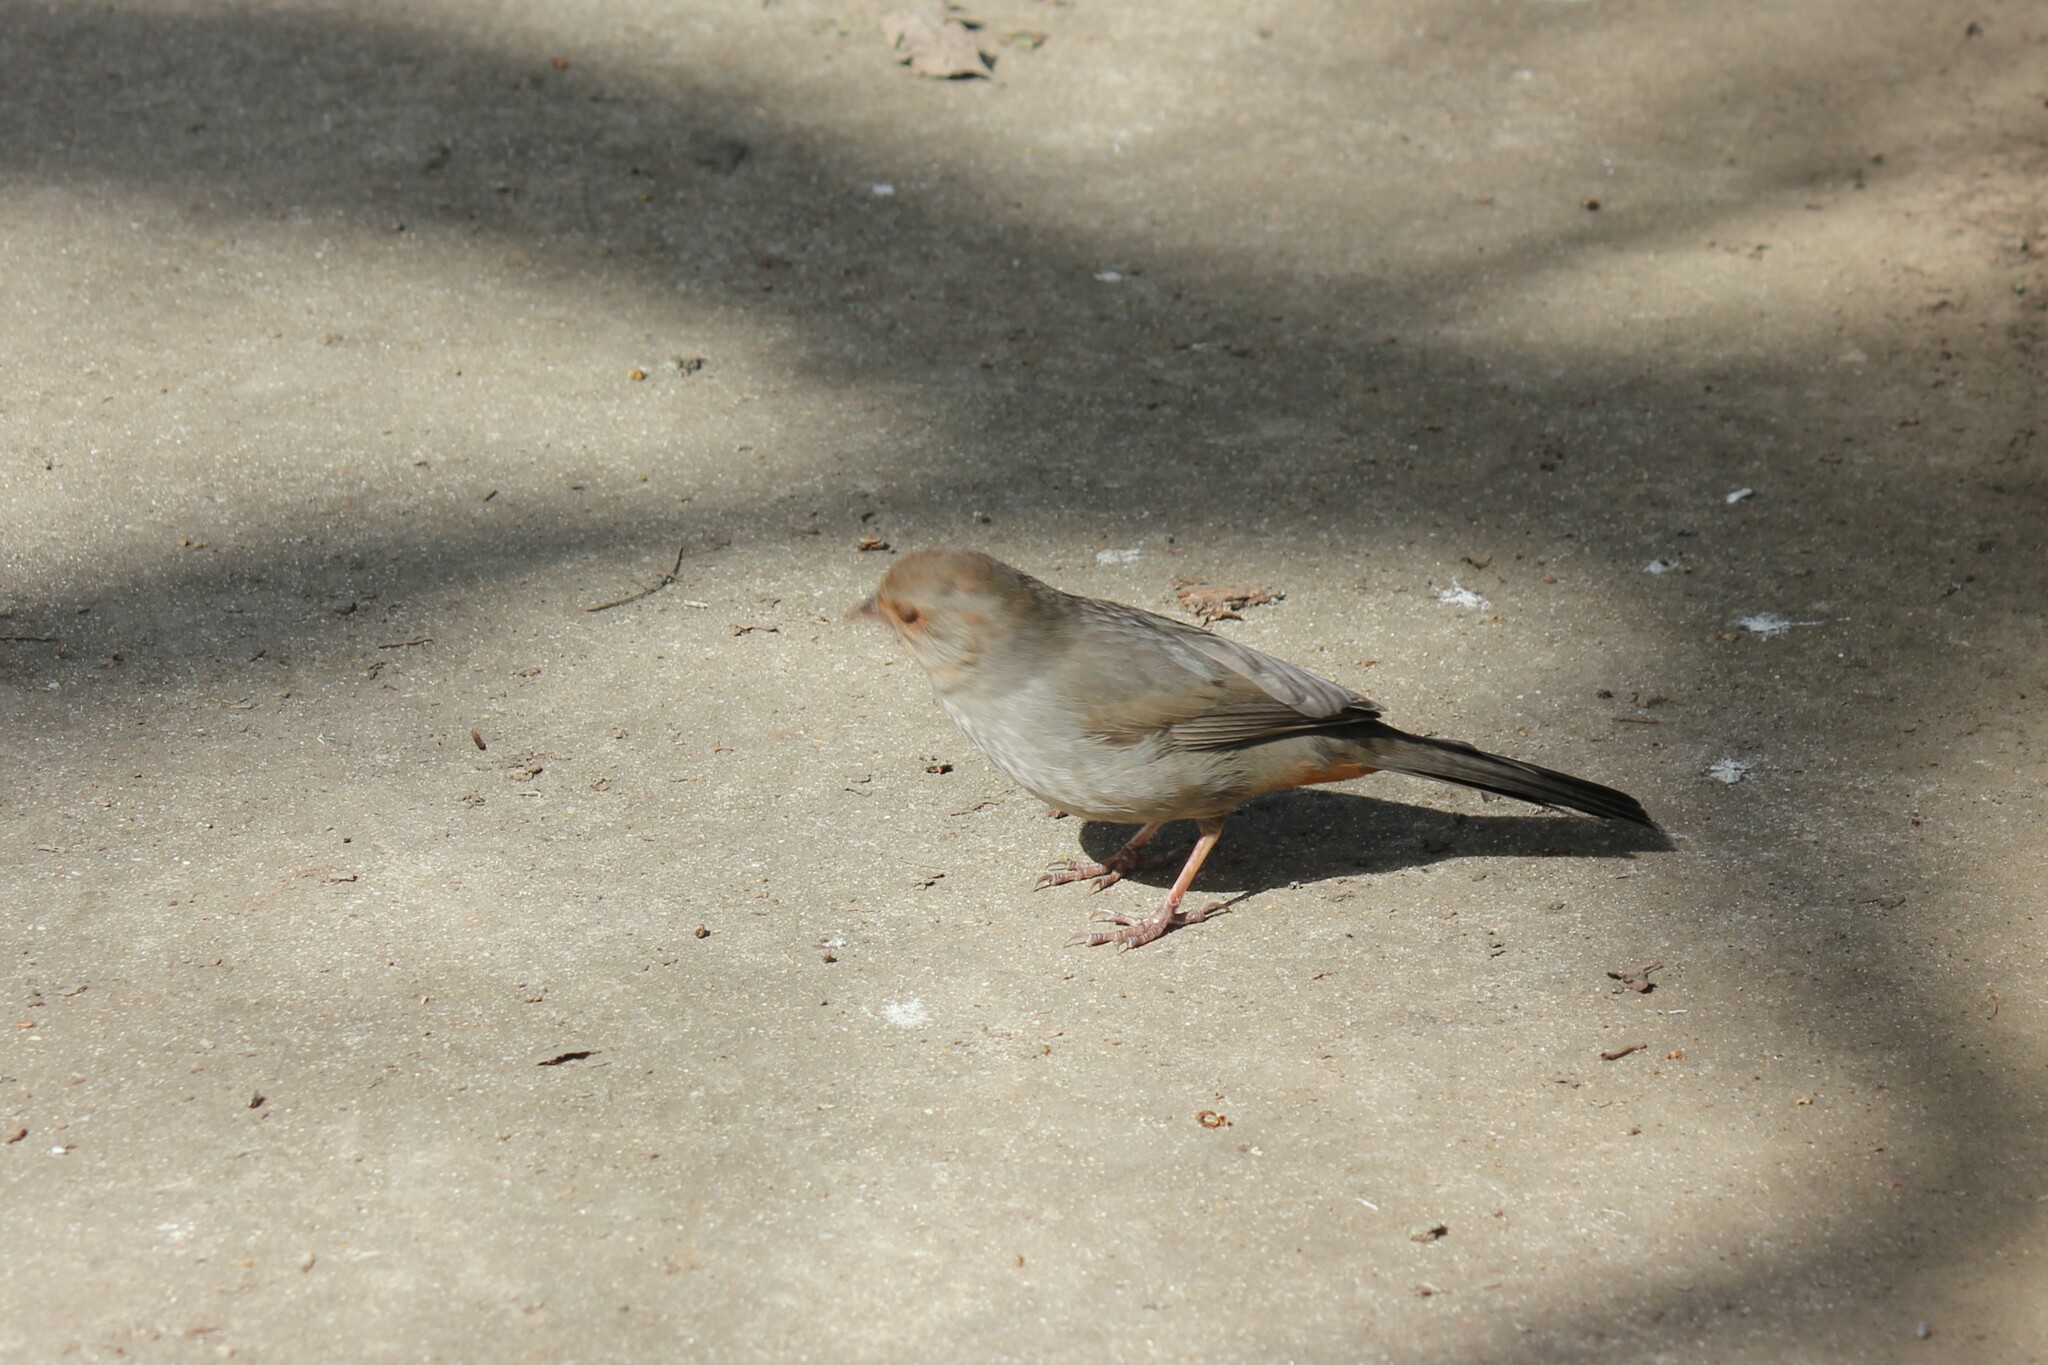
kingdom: Animalia
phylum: Chordata
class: Aves
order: Passeriformes
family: Passerellidae
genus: Melozone
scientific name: Melozone crissalis
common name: California towhee
